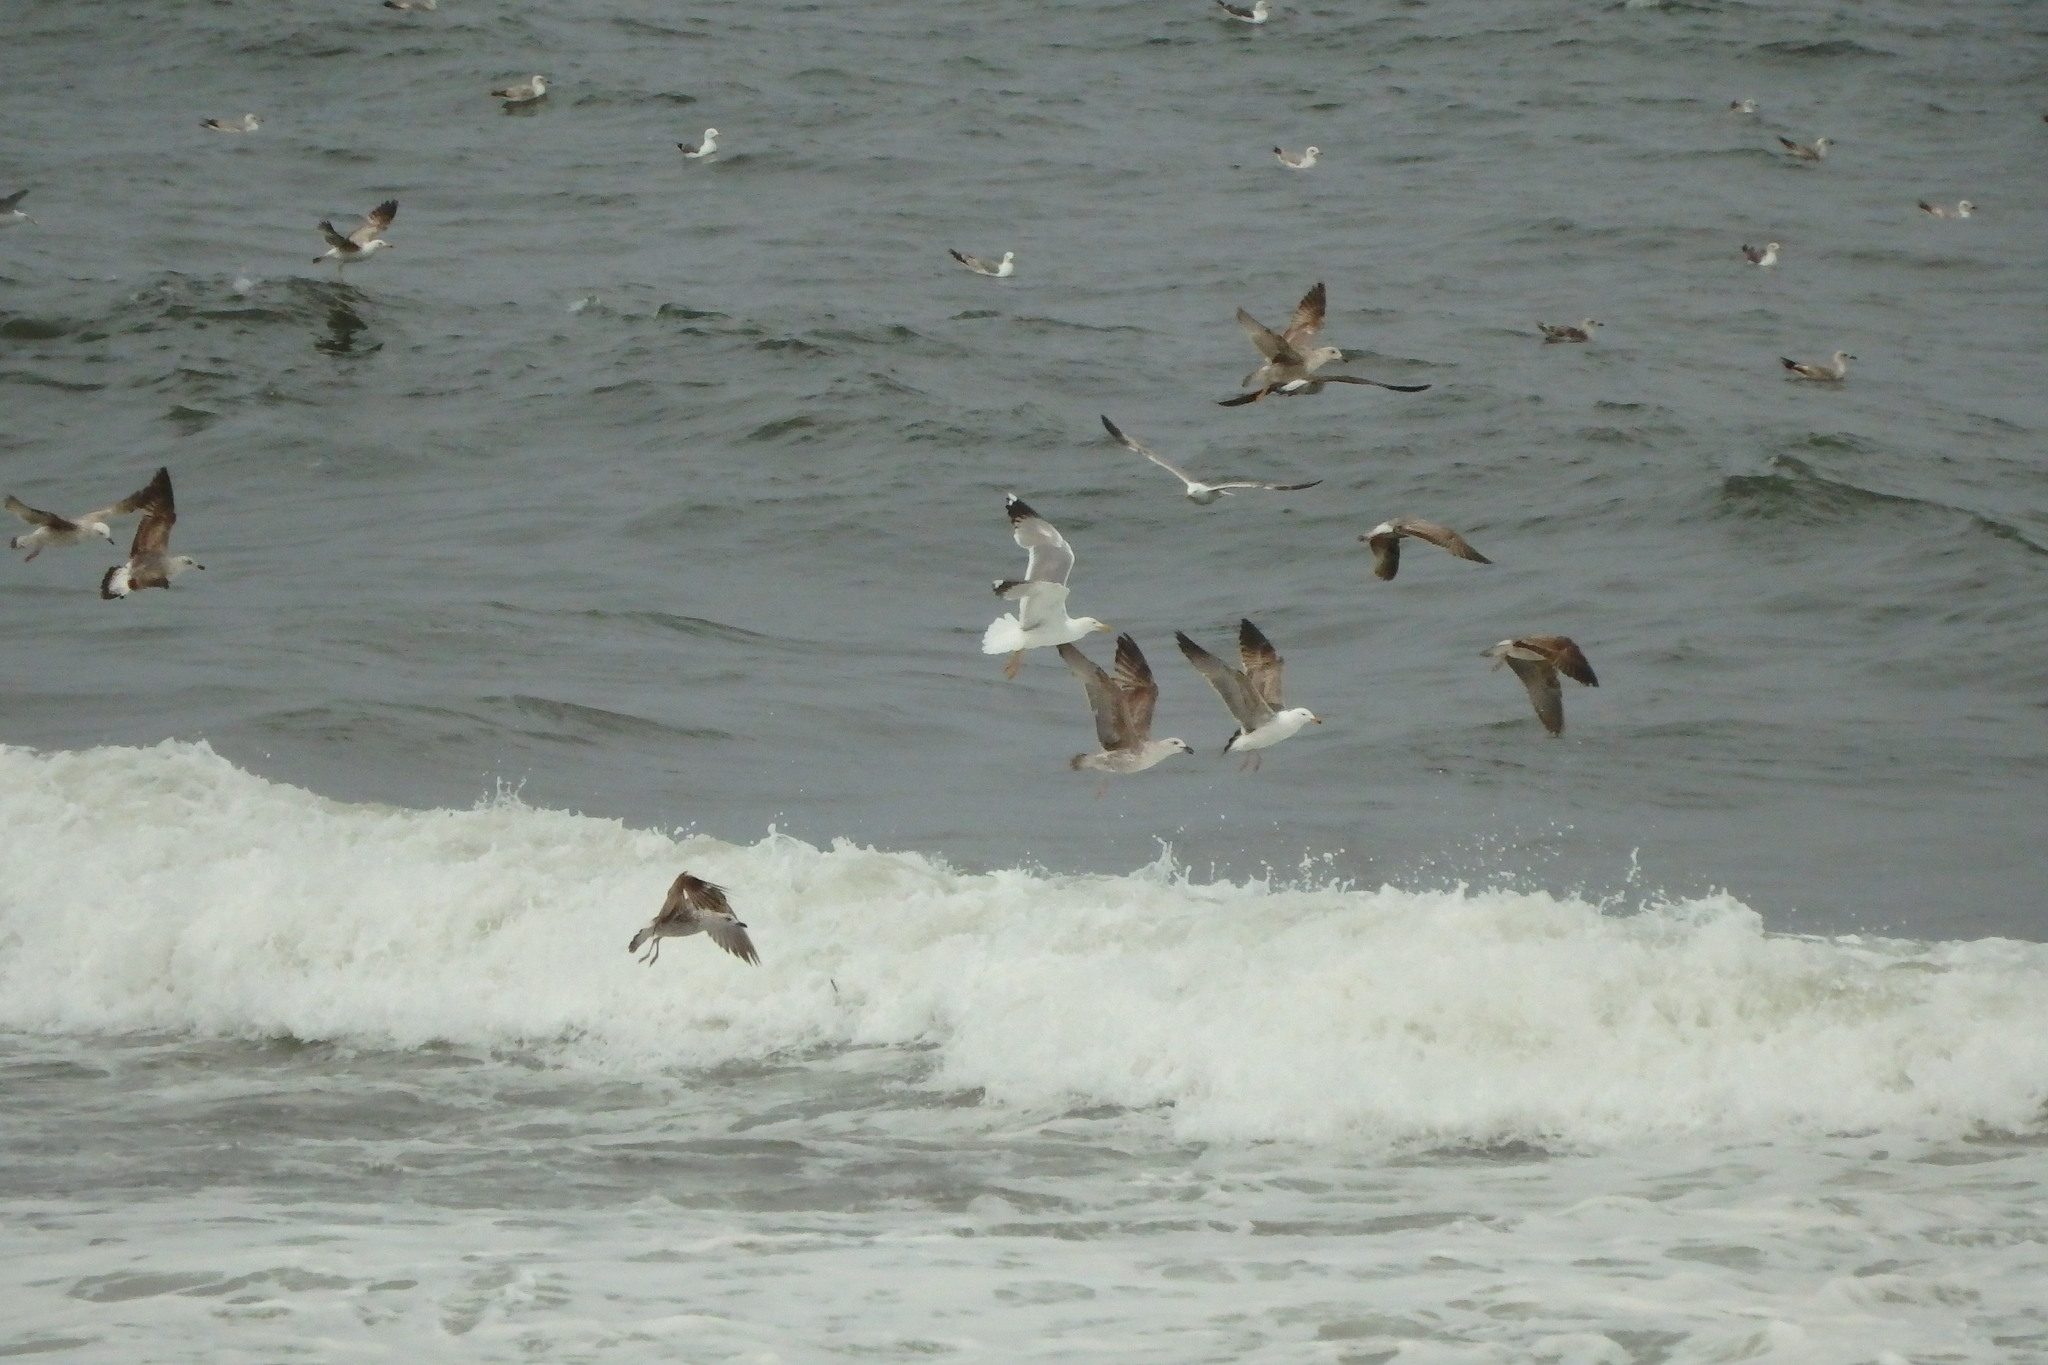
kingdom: Animalia
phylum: Chordata
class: Aves
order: Charadriiformes
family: Laridae
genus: Larus
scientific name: Larus michahellis
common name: Yellow-legged gull
